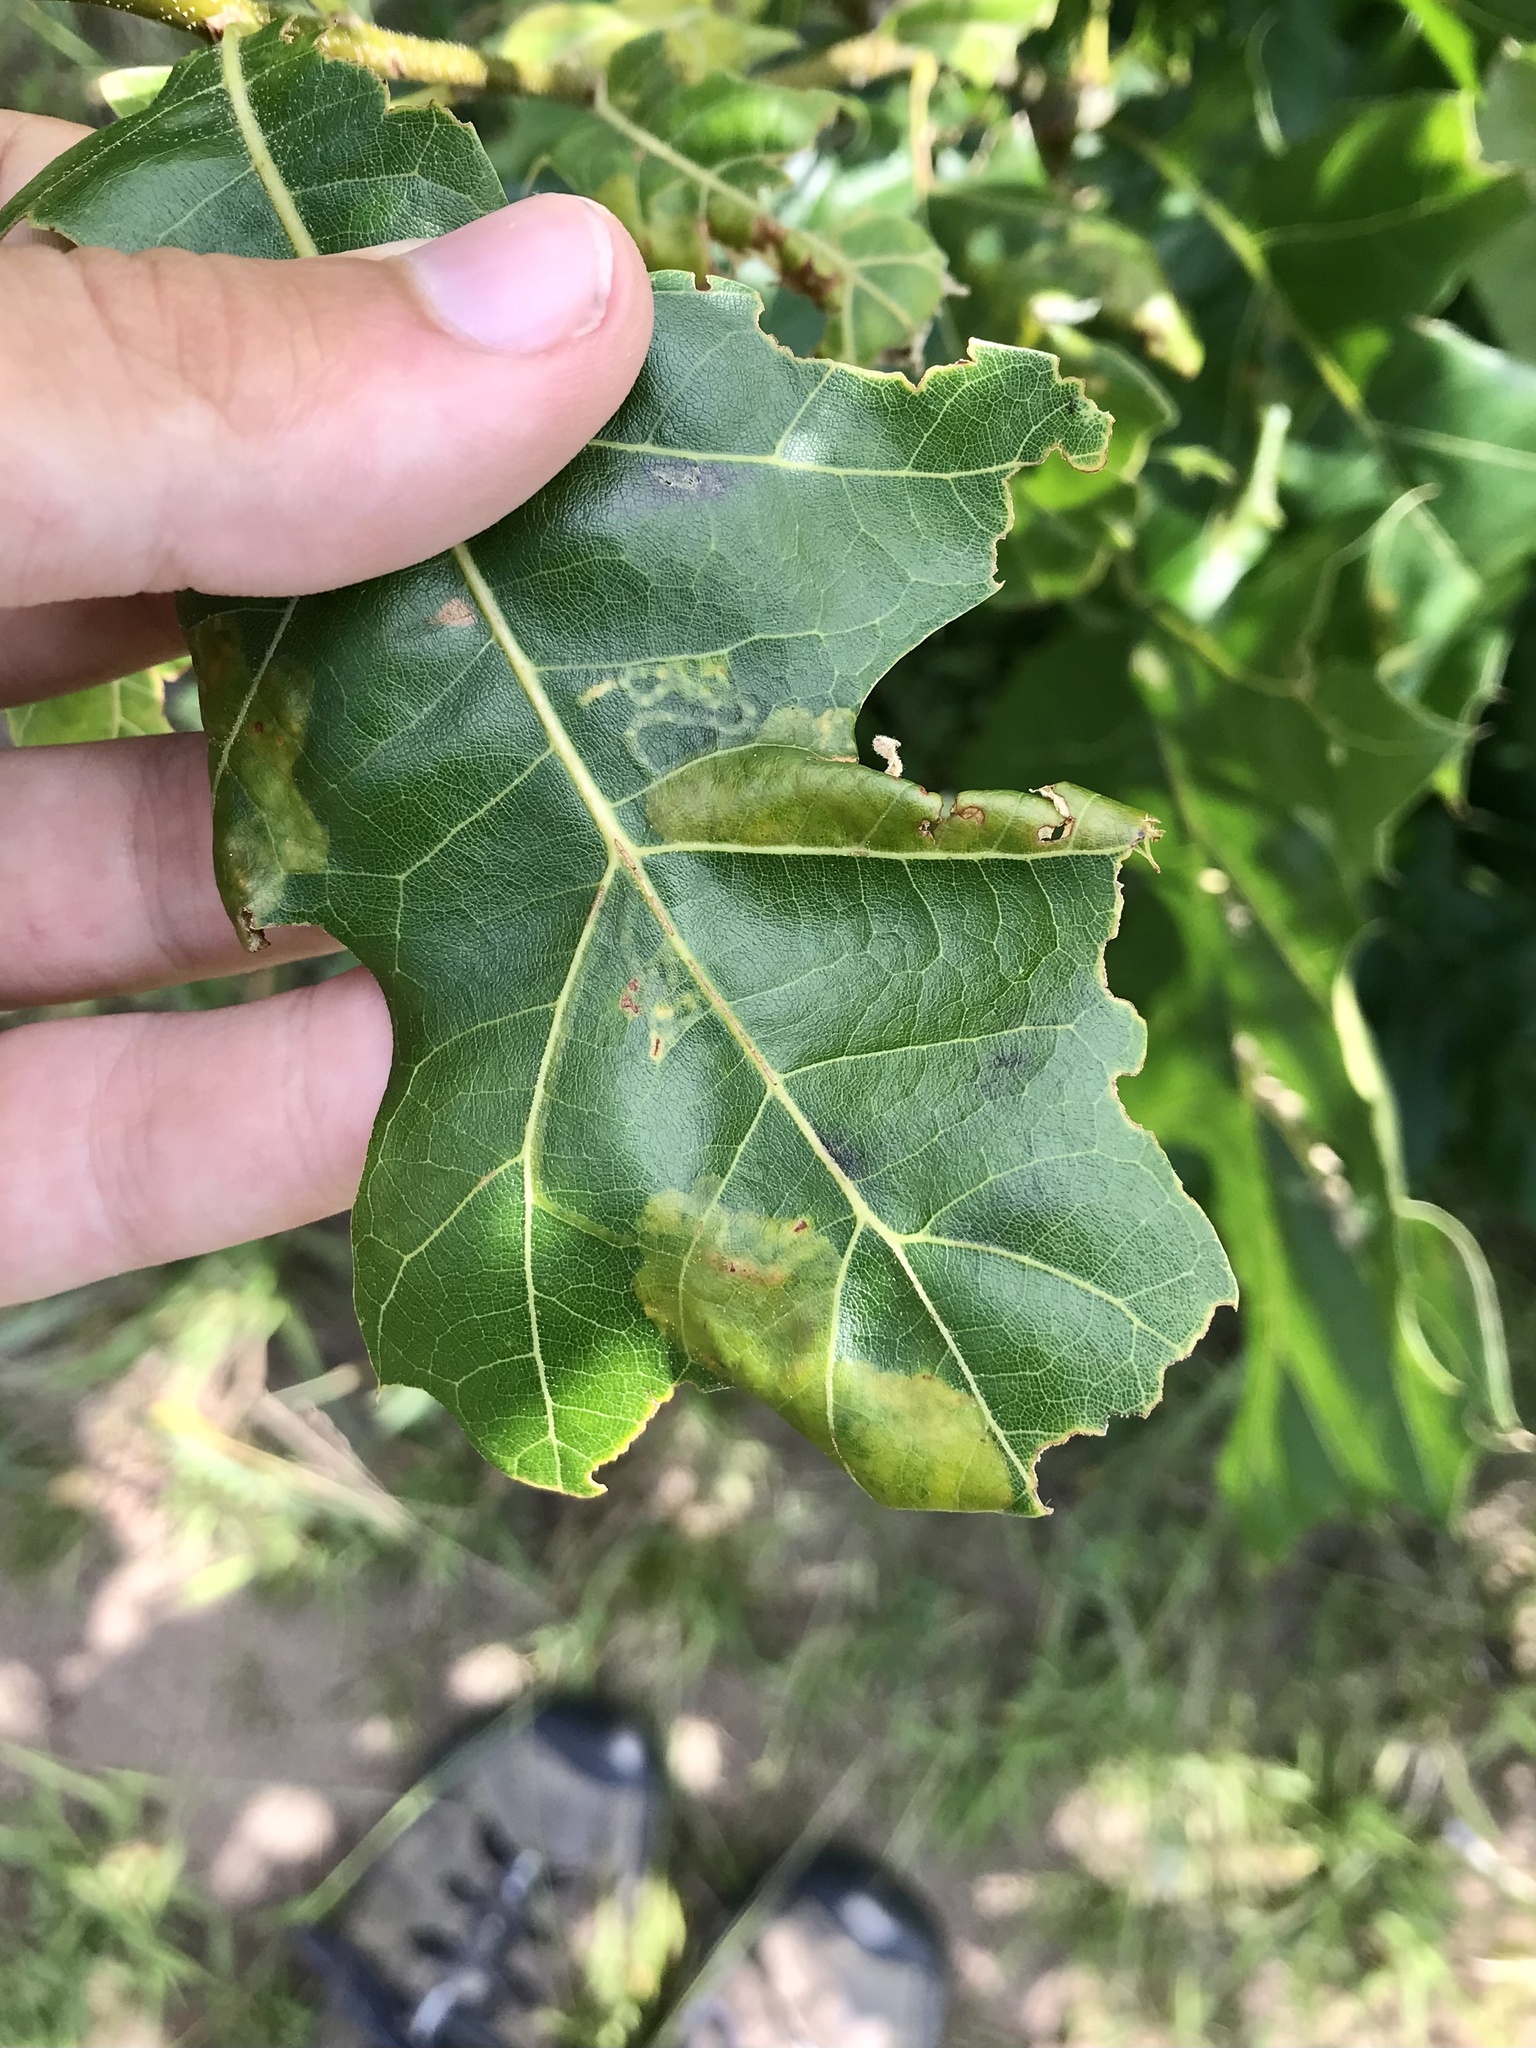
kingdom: Animalia
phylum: Arthropoda
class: Insecta
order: Lepidoptera
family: Gracillariidae
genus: Acrocercops
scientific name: Acrocercops albinatella
